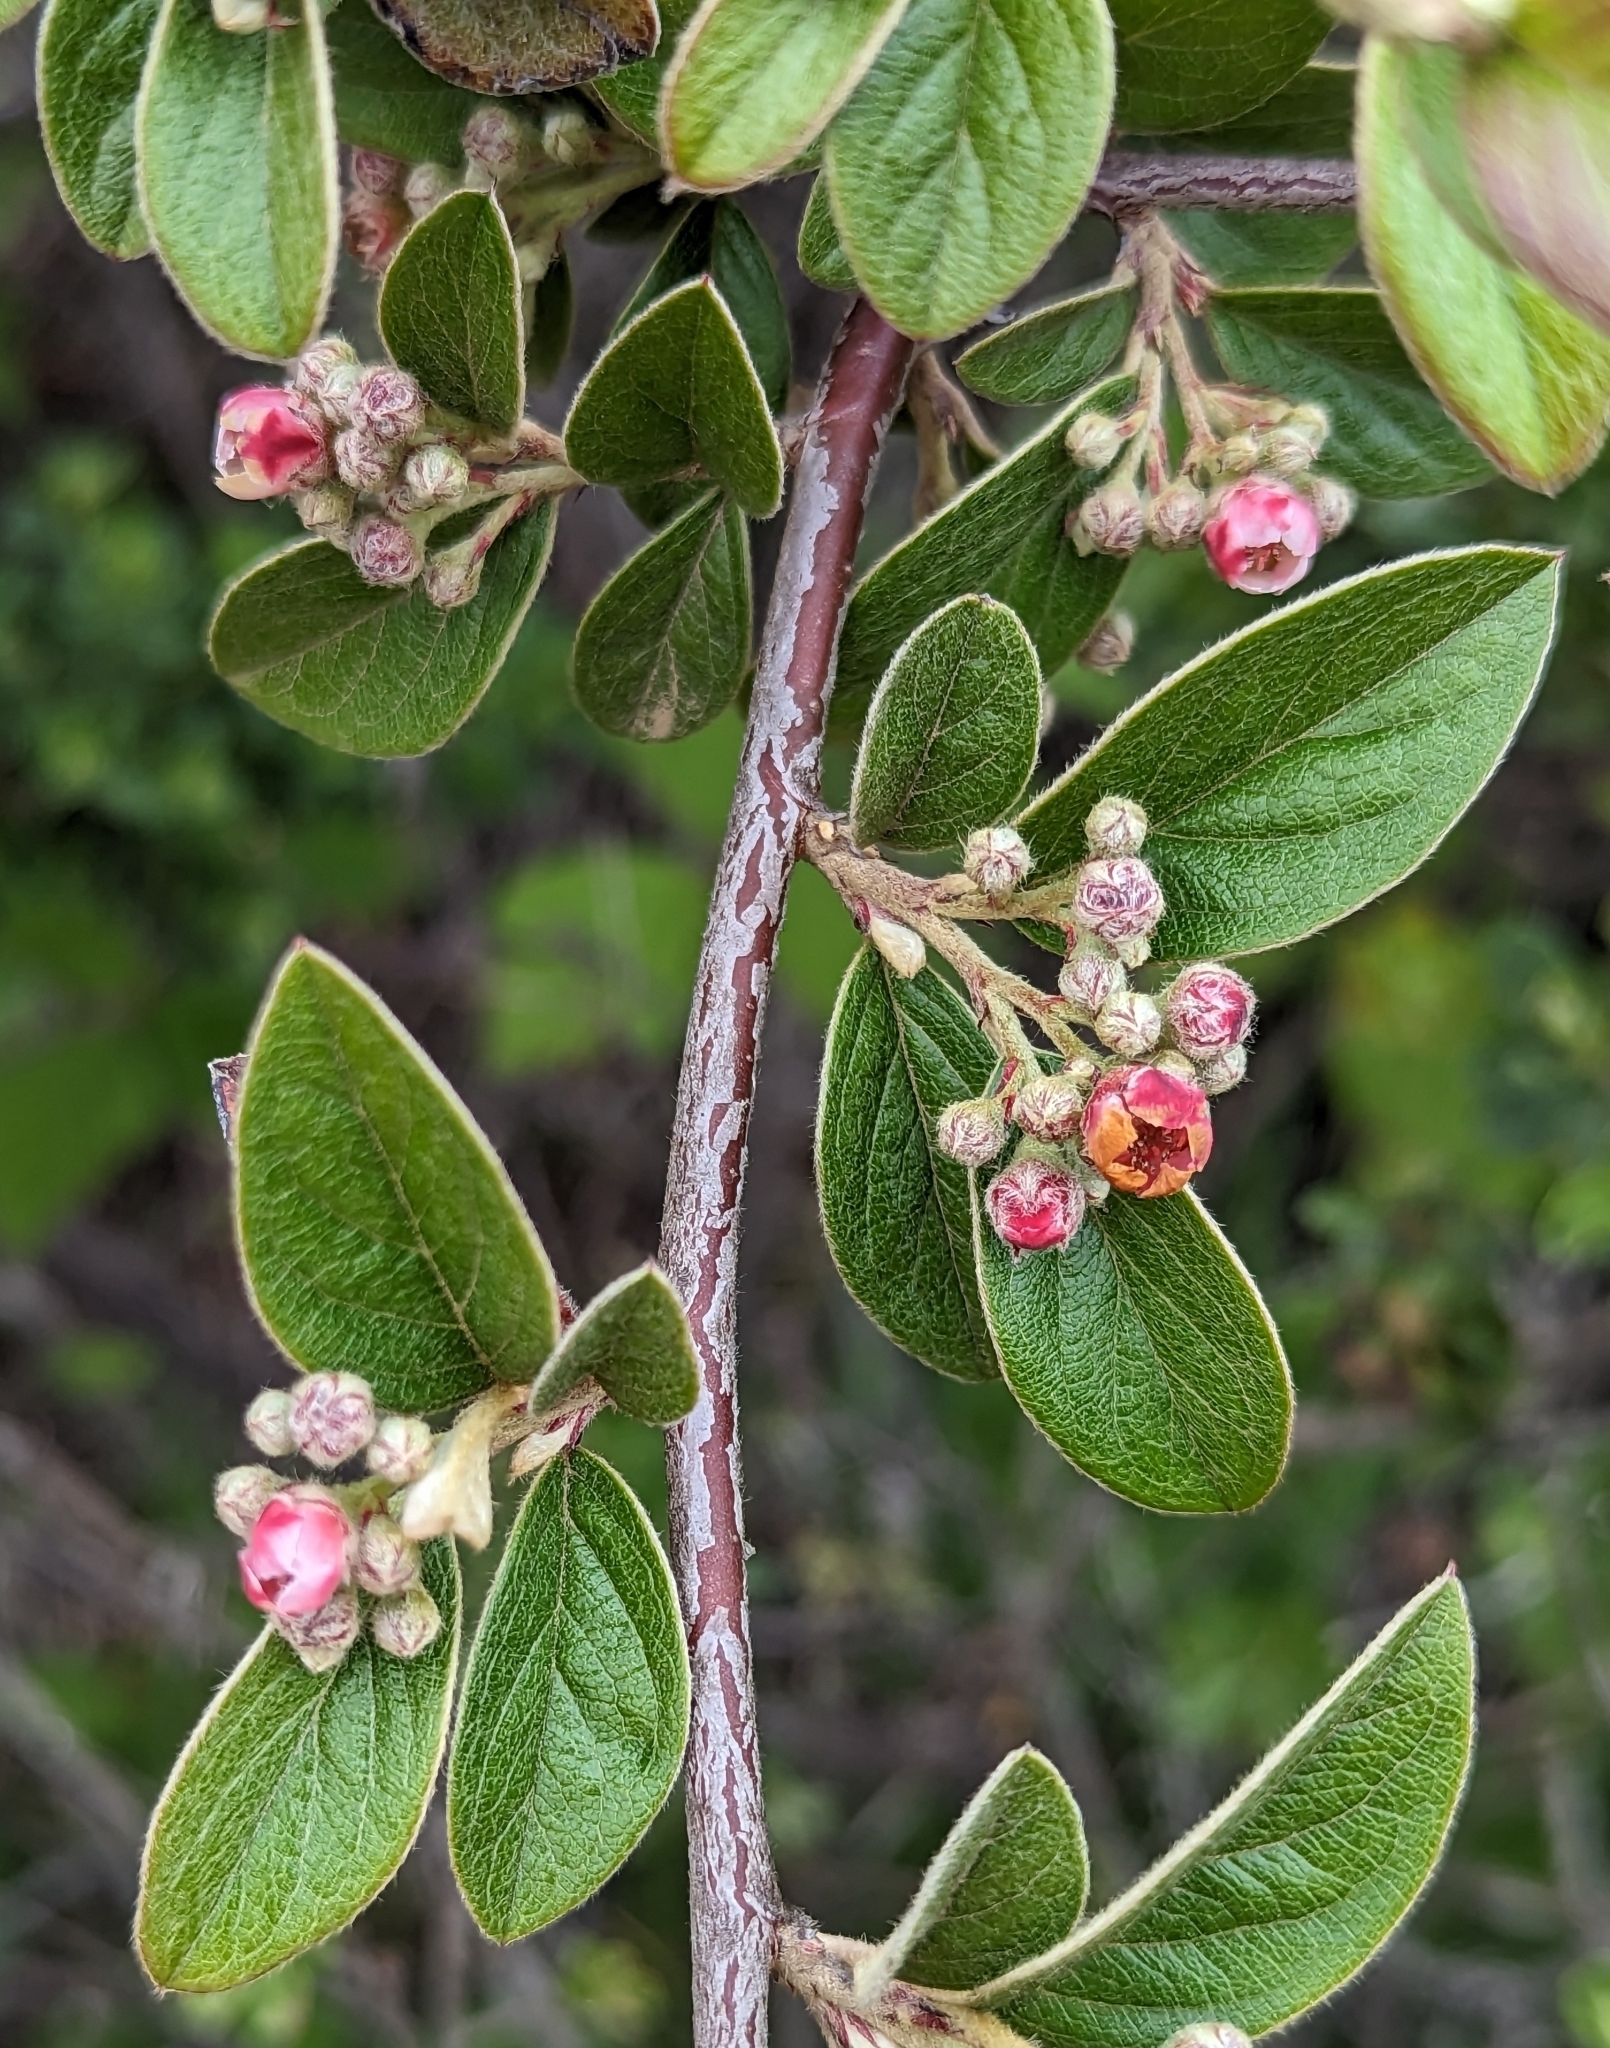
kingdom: Plantae
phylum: Tracheophyta
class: Magnoliopsida
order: Rosales
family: Rosaceae
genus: Cotoneaster
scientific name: Cotoneaster franchetii
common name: Franchet's cotoneaster
